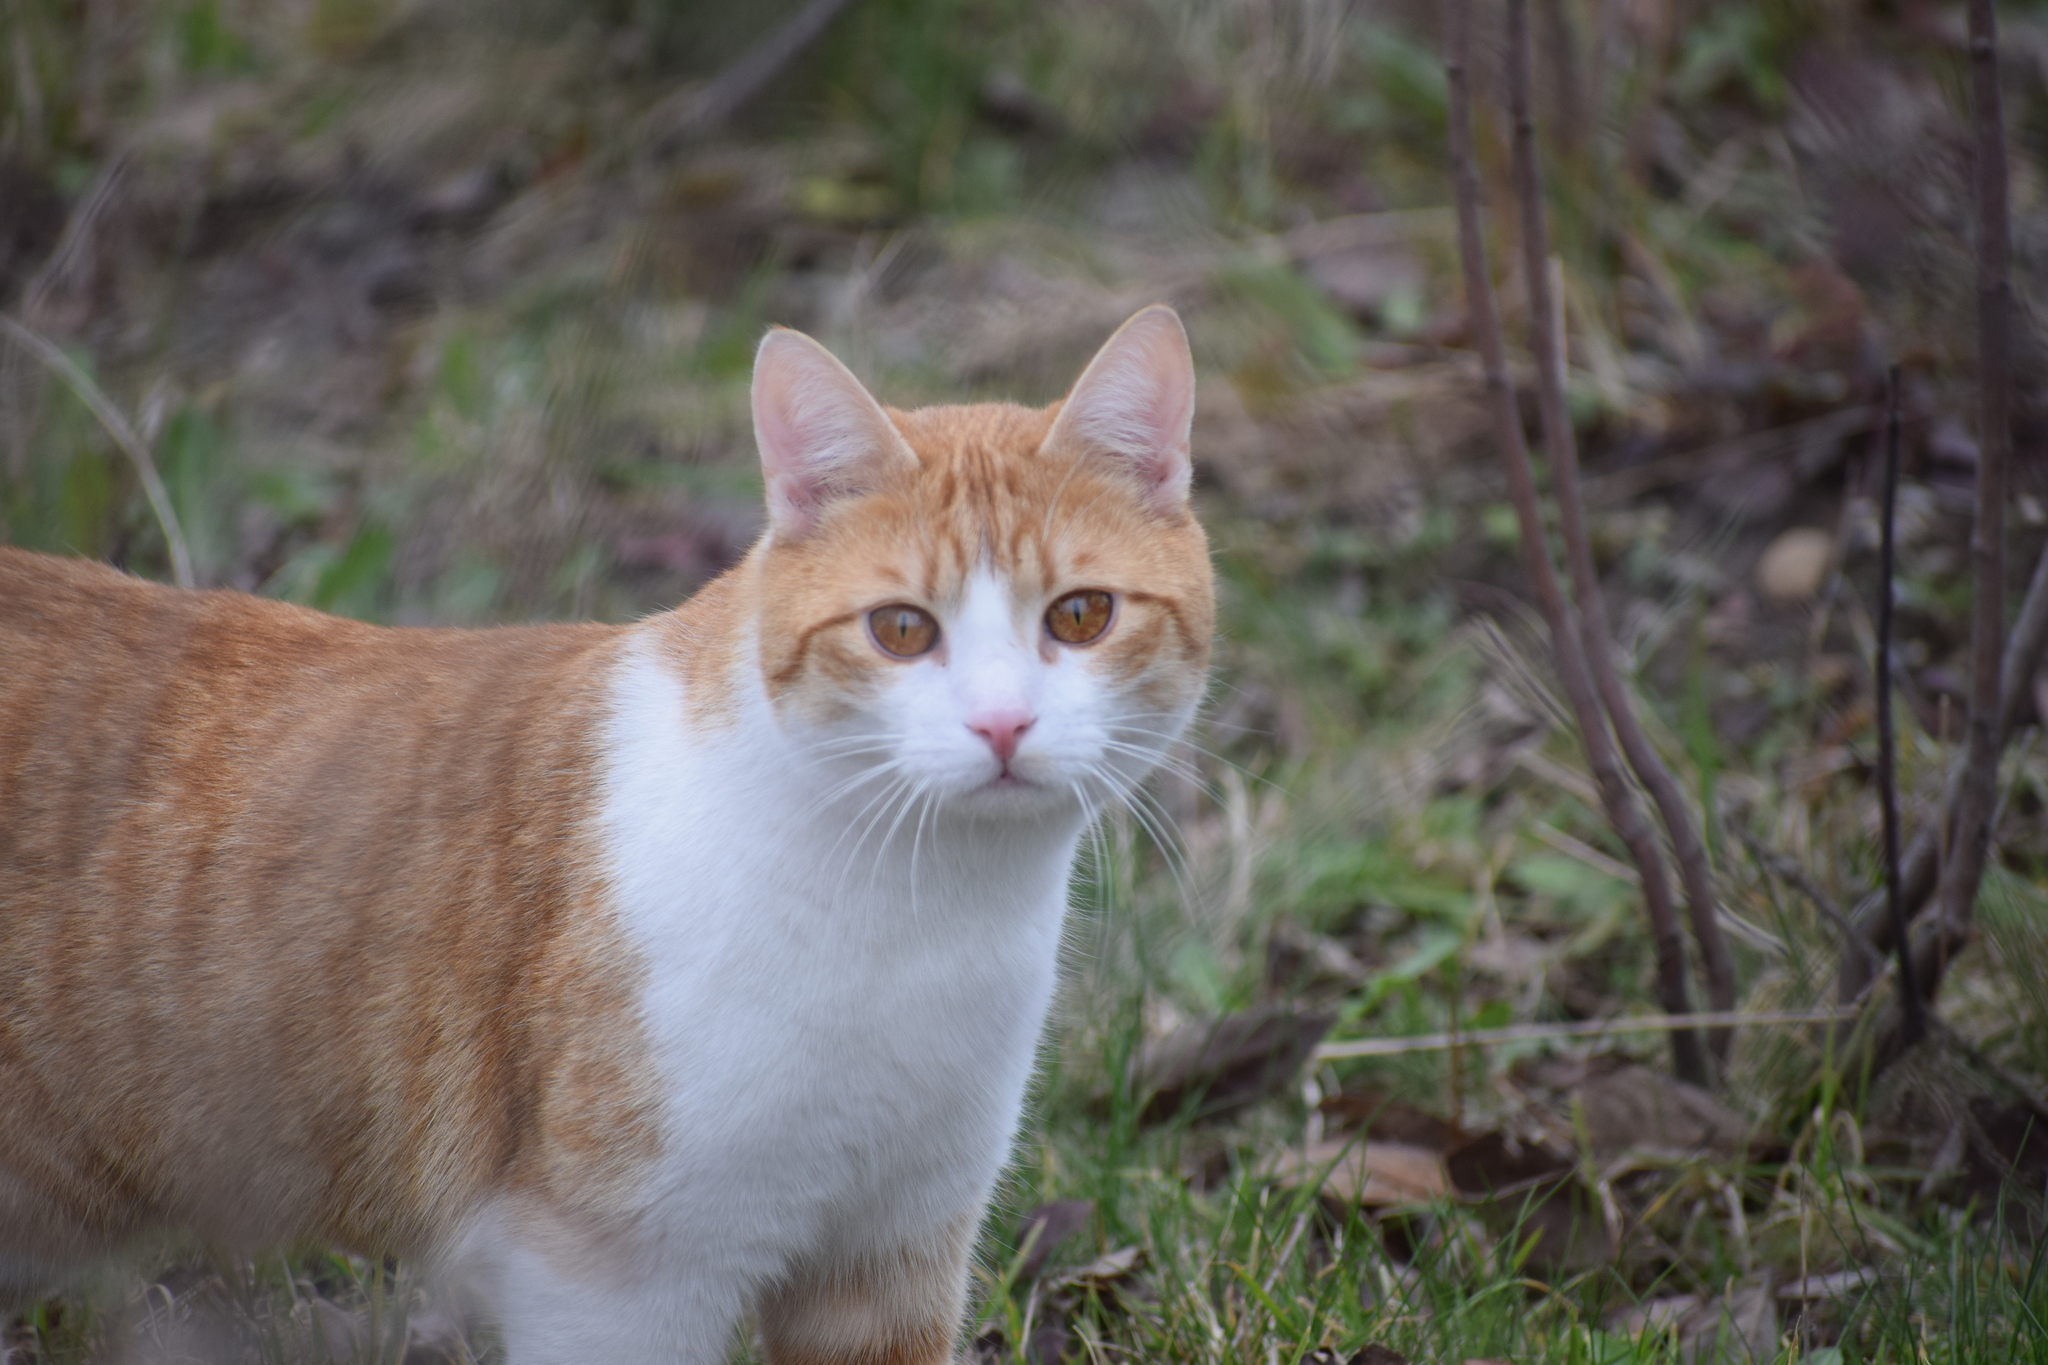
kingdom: Animalia
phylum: Chordata
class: Mammalia
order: Carnivora
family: Felidae
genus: Felis
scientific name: Felis catus
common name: Domestic cat
